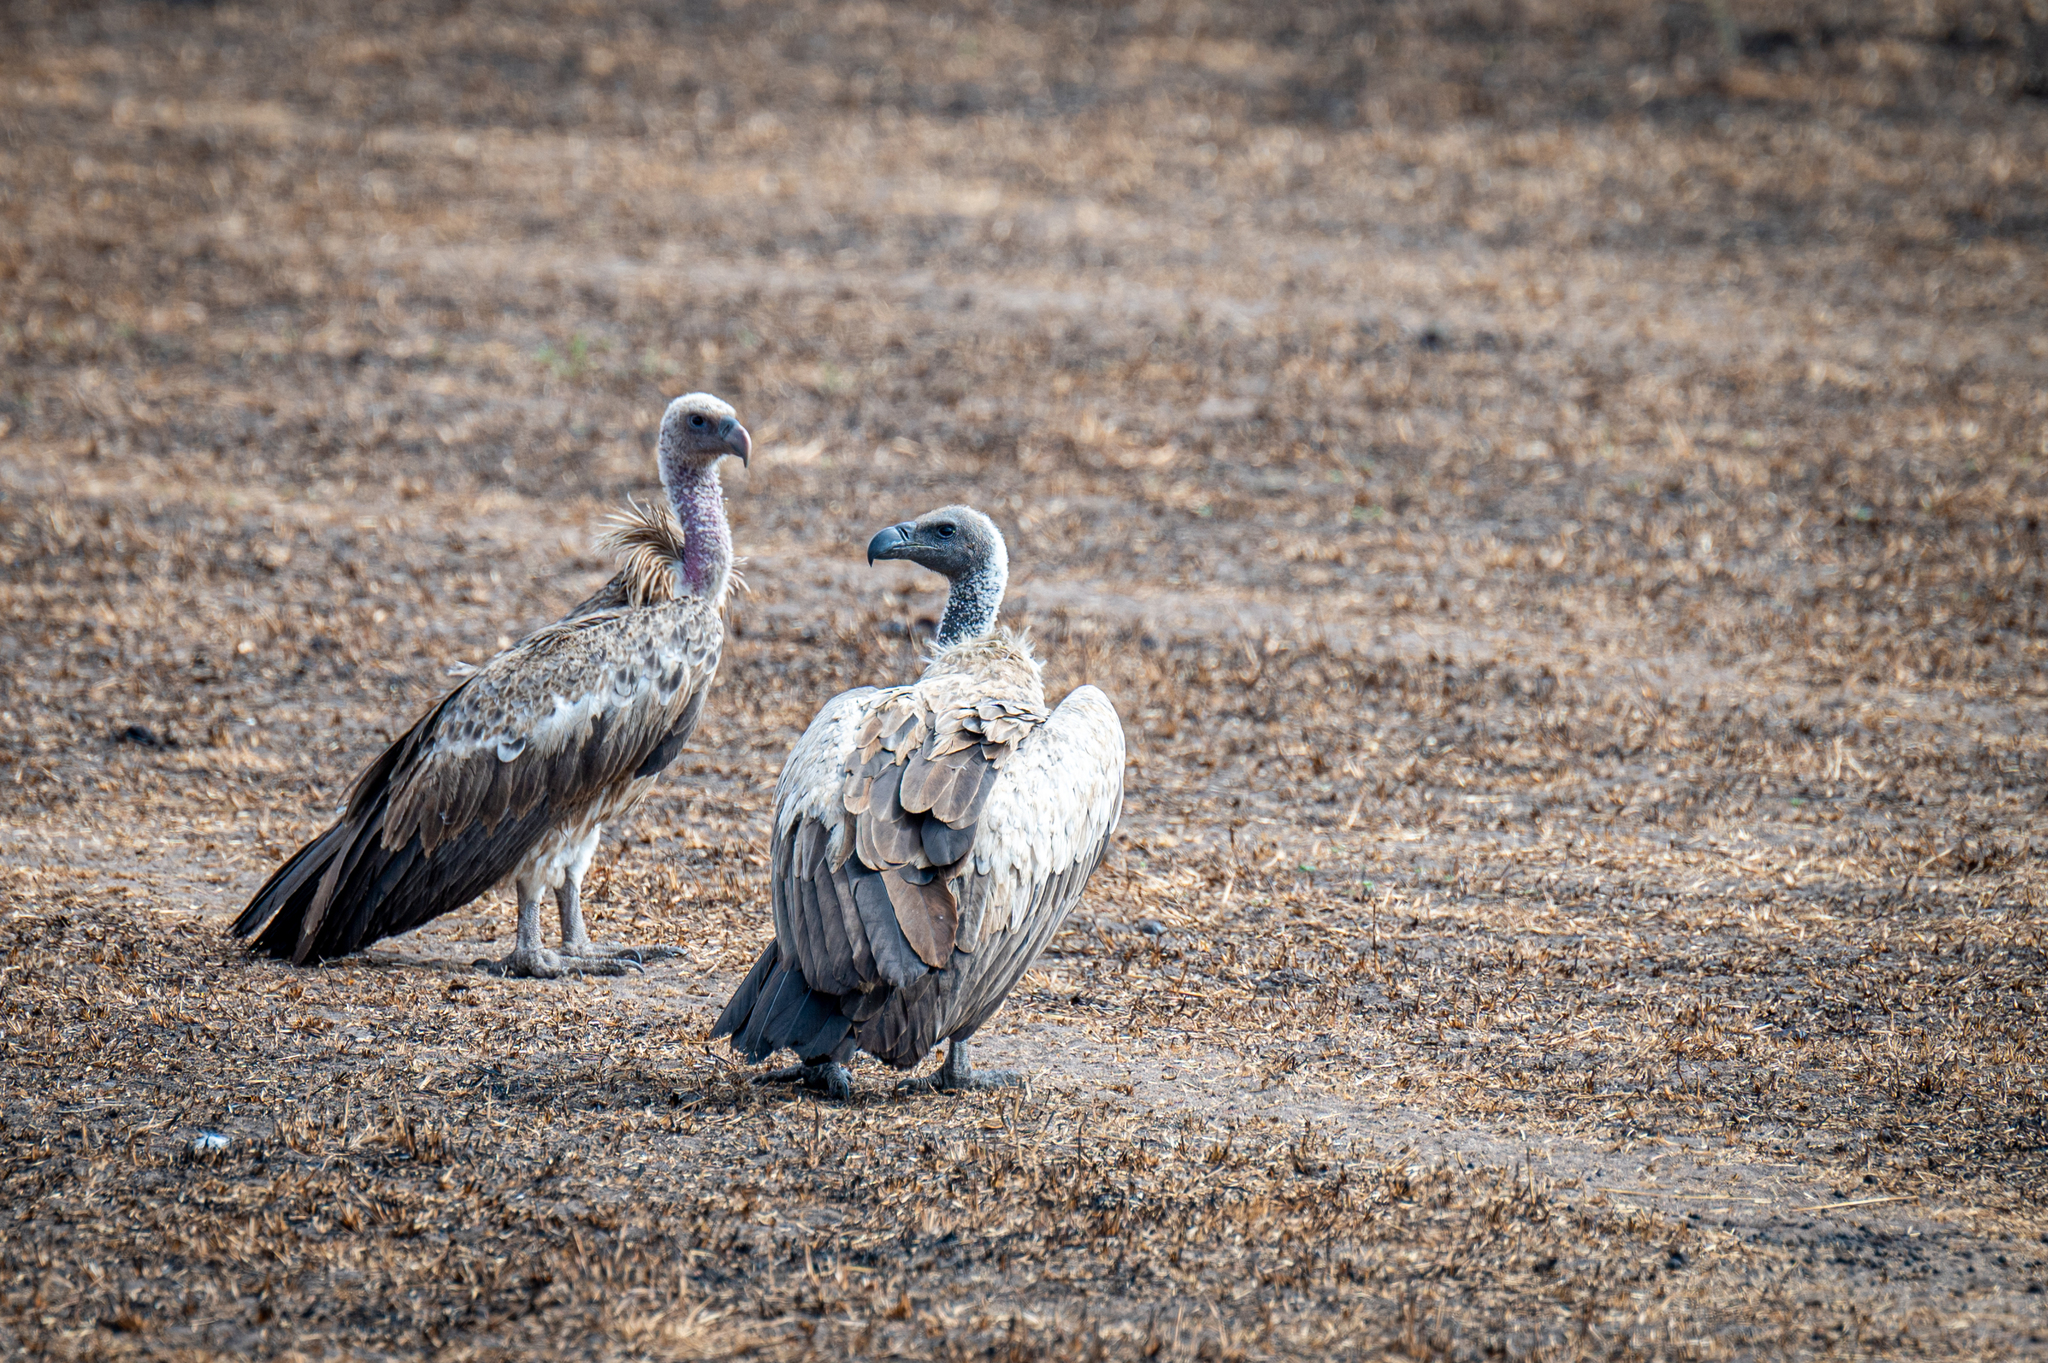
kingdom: Animalia
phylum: Chordata
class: Aves
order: Accipitriformes
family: Accipitridae
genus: Gyps
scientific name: Gyps africanus
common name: White-backed vulture
